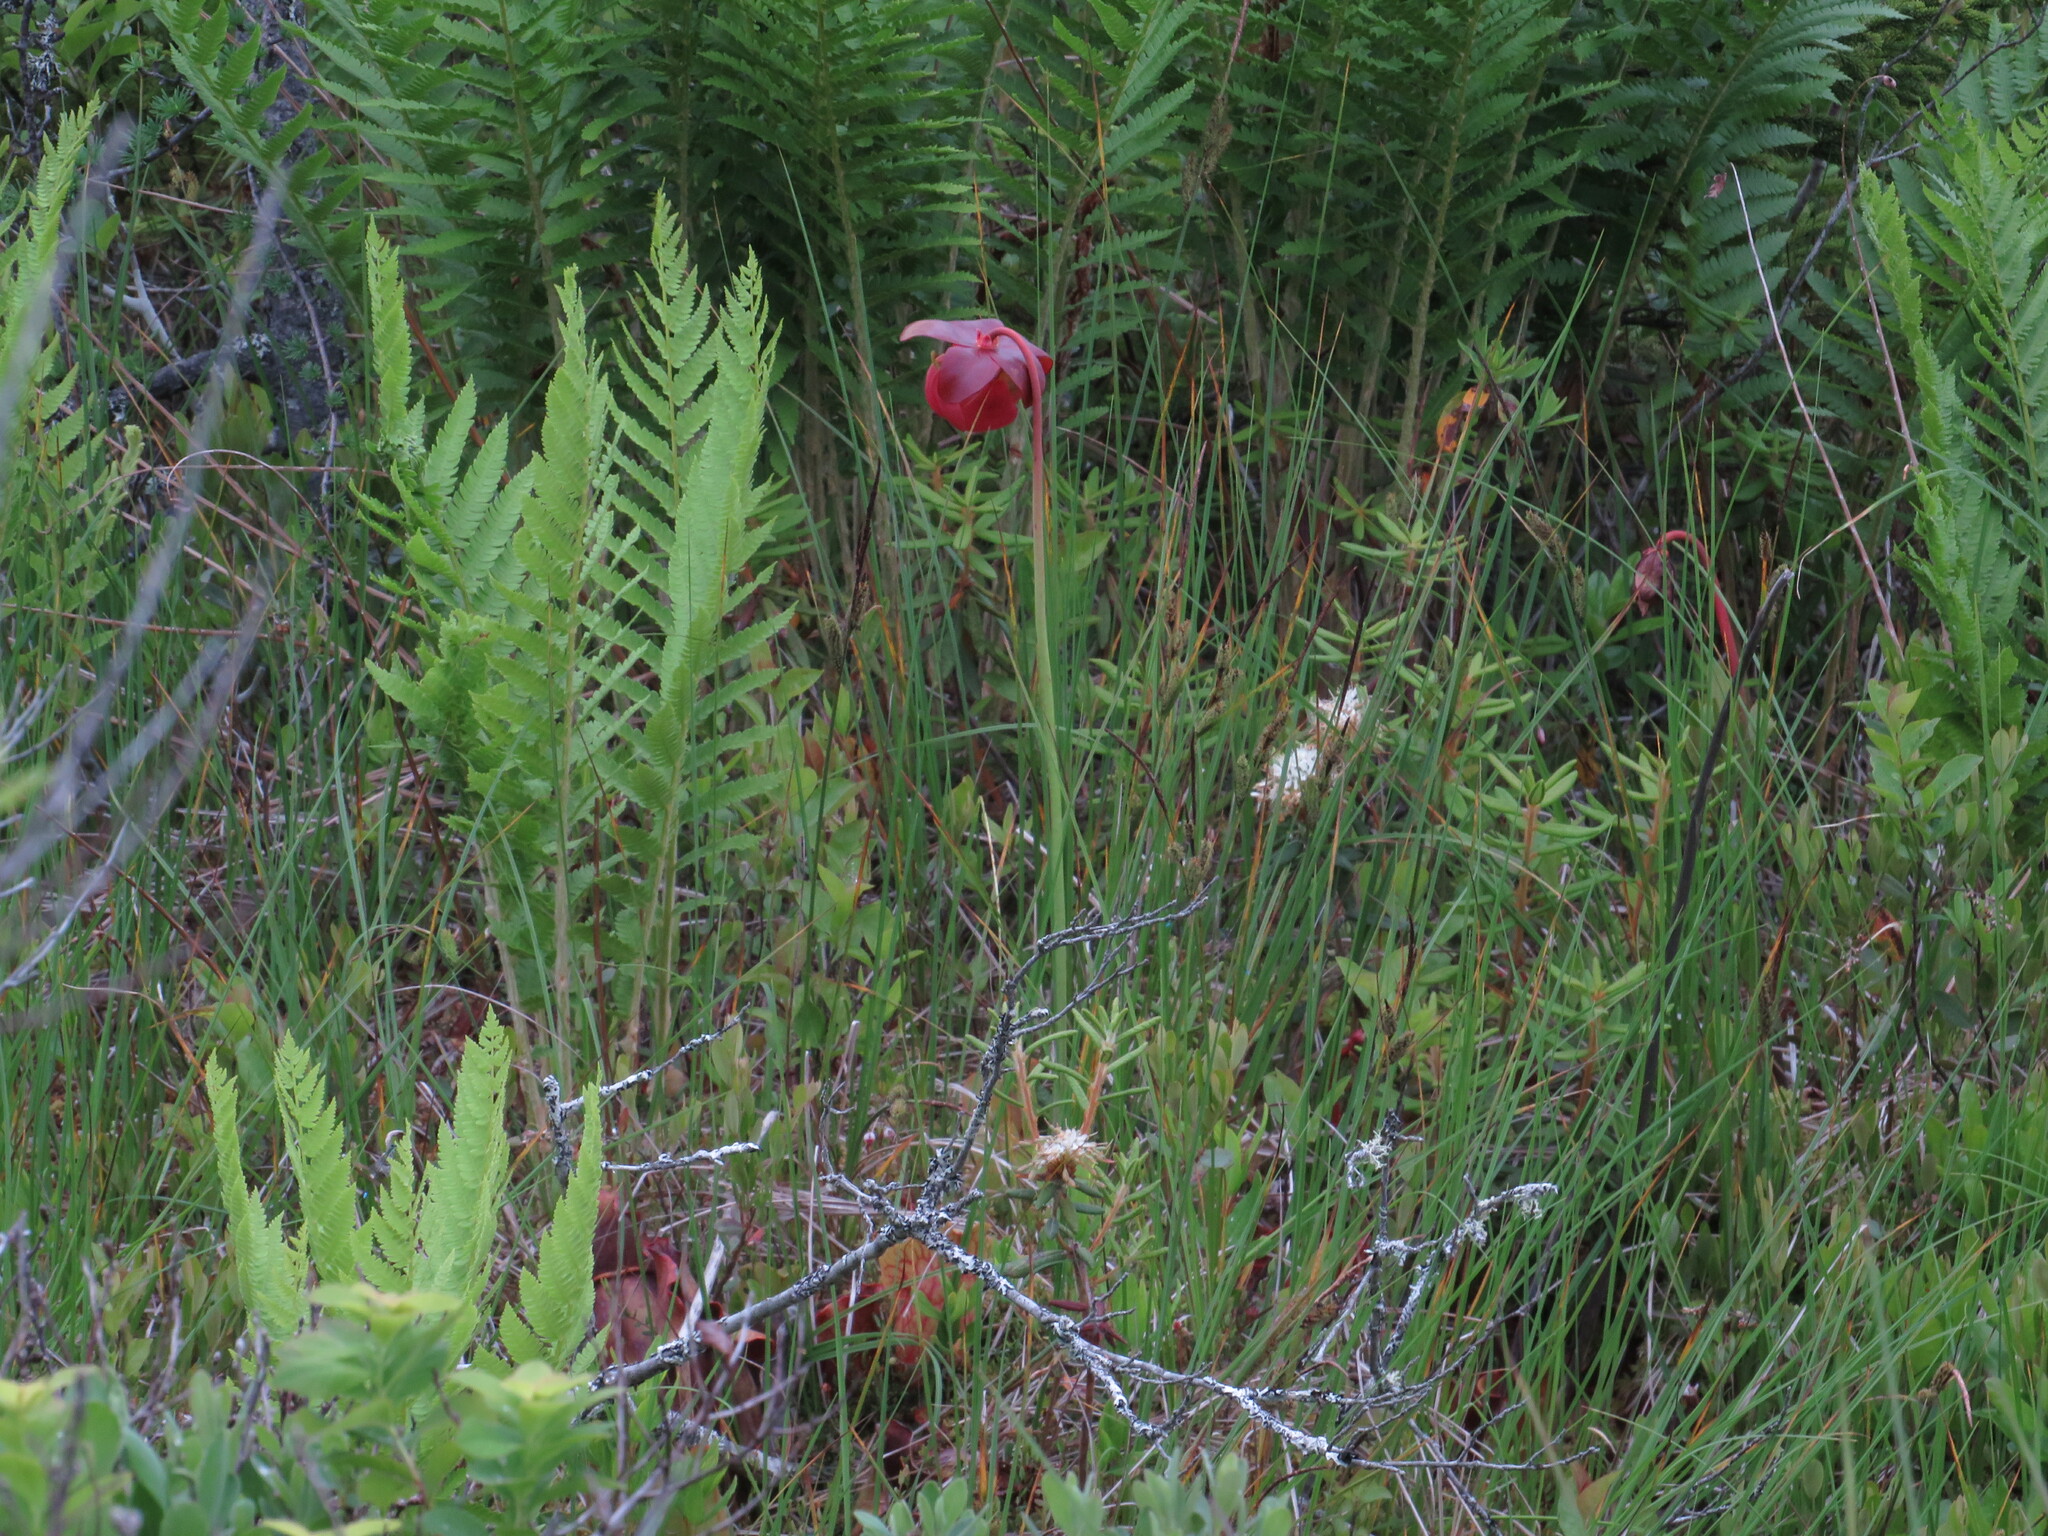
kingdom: Plantae
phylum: Tracheophyta
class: Magnoliopsida
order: Ericales
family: Sarraceniaceae
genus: Sarracenia
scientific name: Sarracenia purpurea
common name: Pitcherplant
